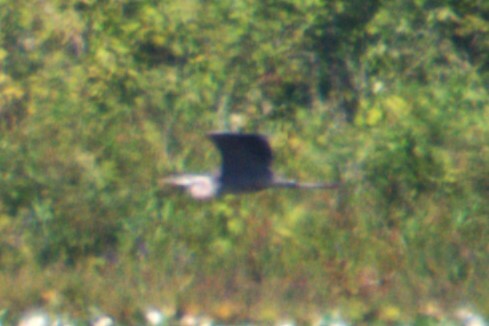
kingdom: Animalia
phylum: Chordata
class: Aves
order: Pelecaniformes
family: Ardeidae
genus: Ardea
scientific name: Ardea herodias
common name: Great blue heron
